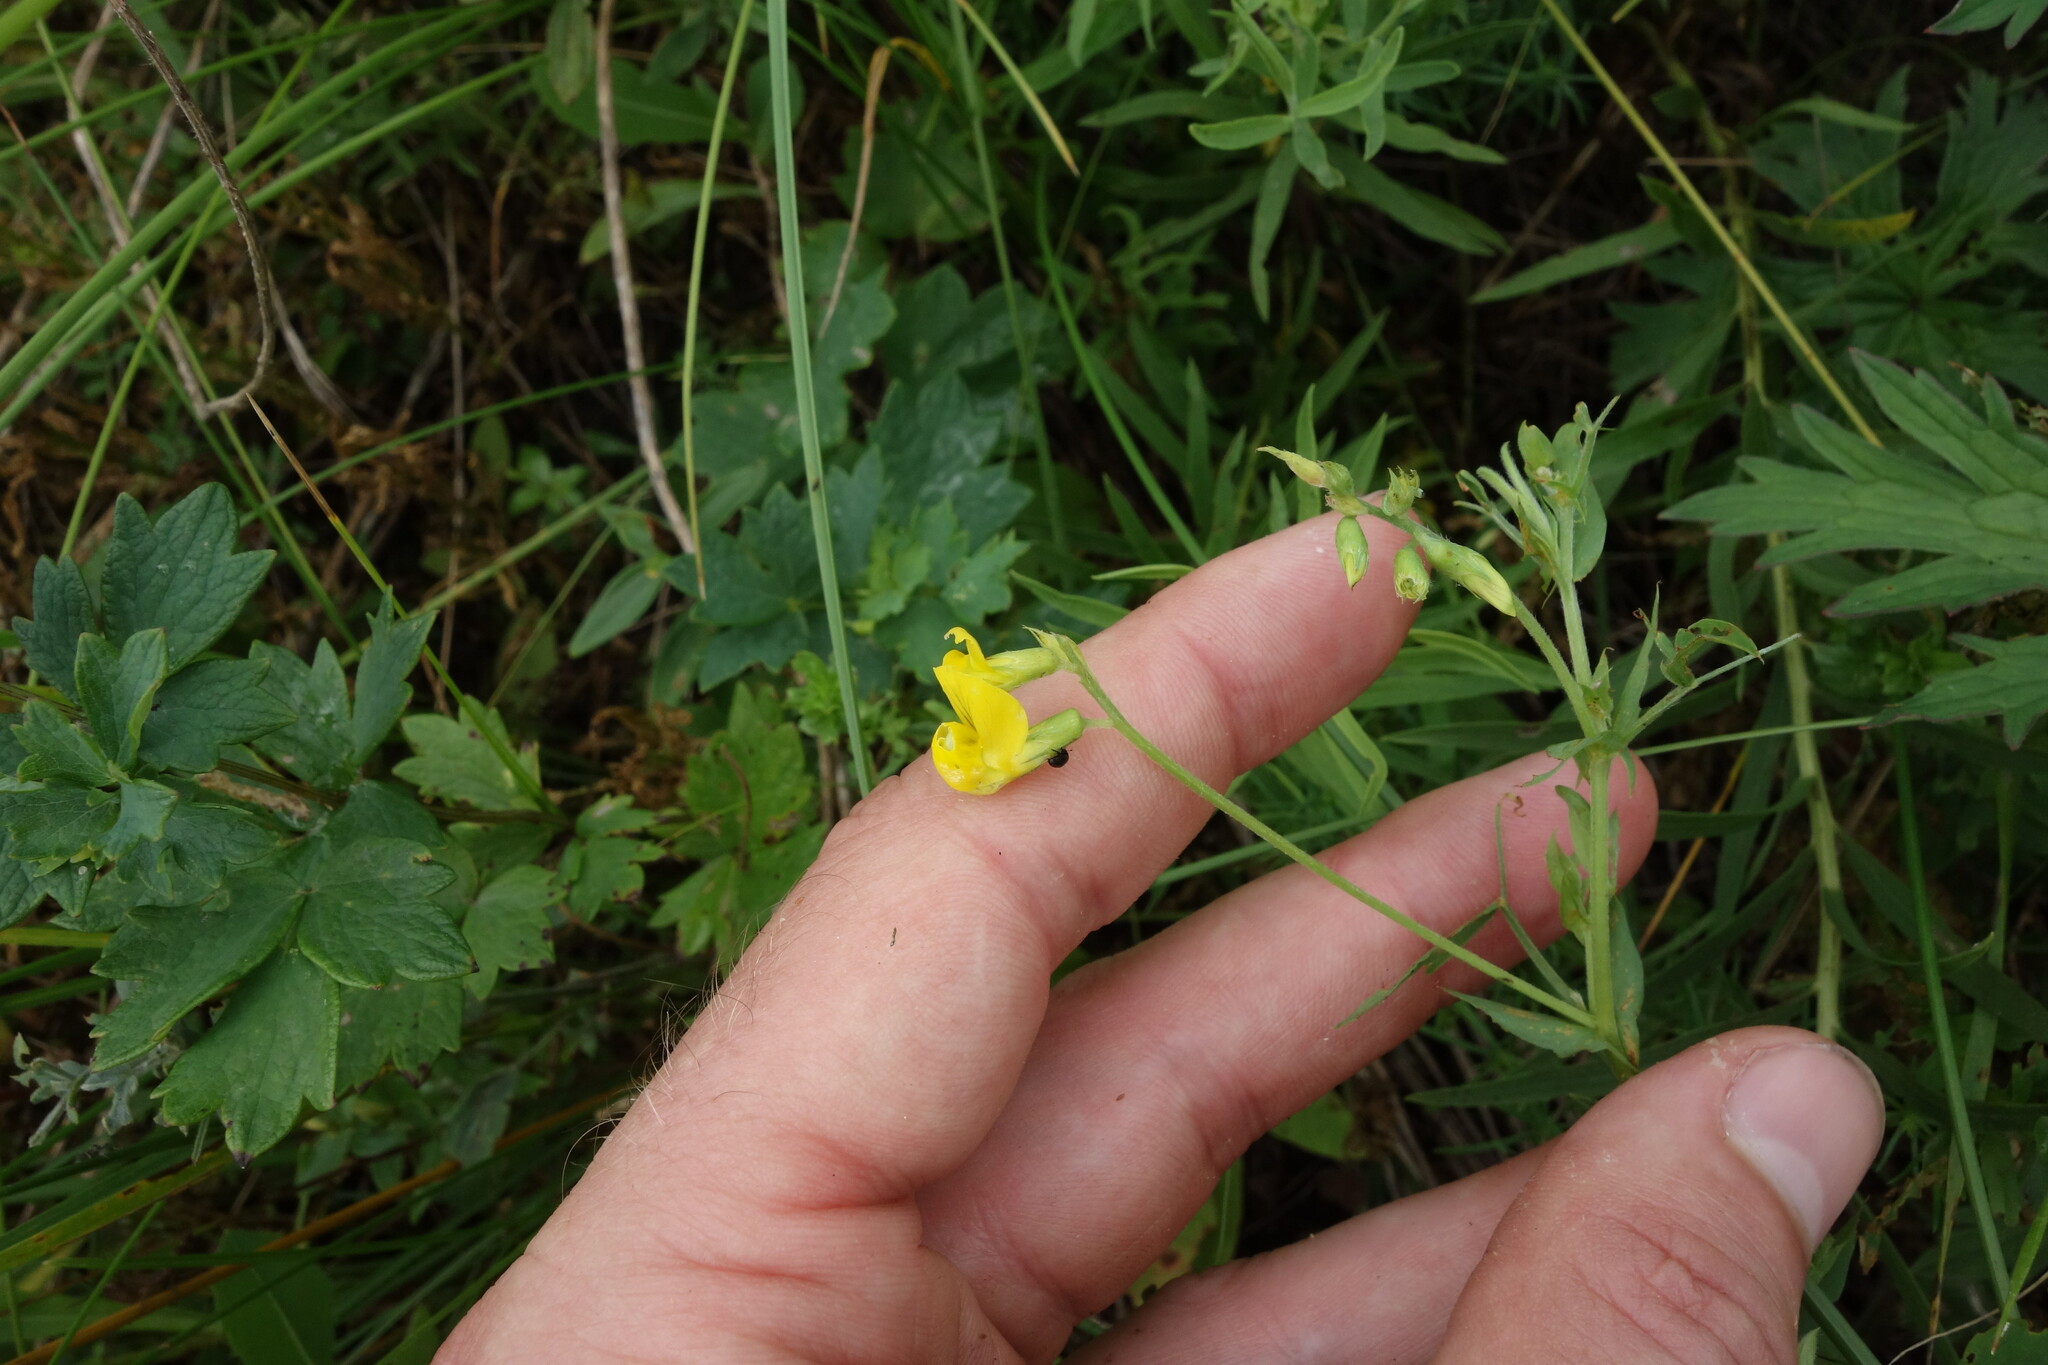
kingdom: Plantae
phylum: Tracheophyta
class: Magnoliopsida
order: Fabales
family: Fabaceae
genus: Lathyrus
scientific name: Lathyrus pratensis
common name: Meadow vetchling
